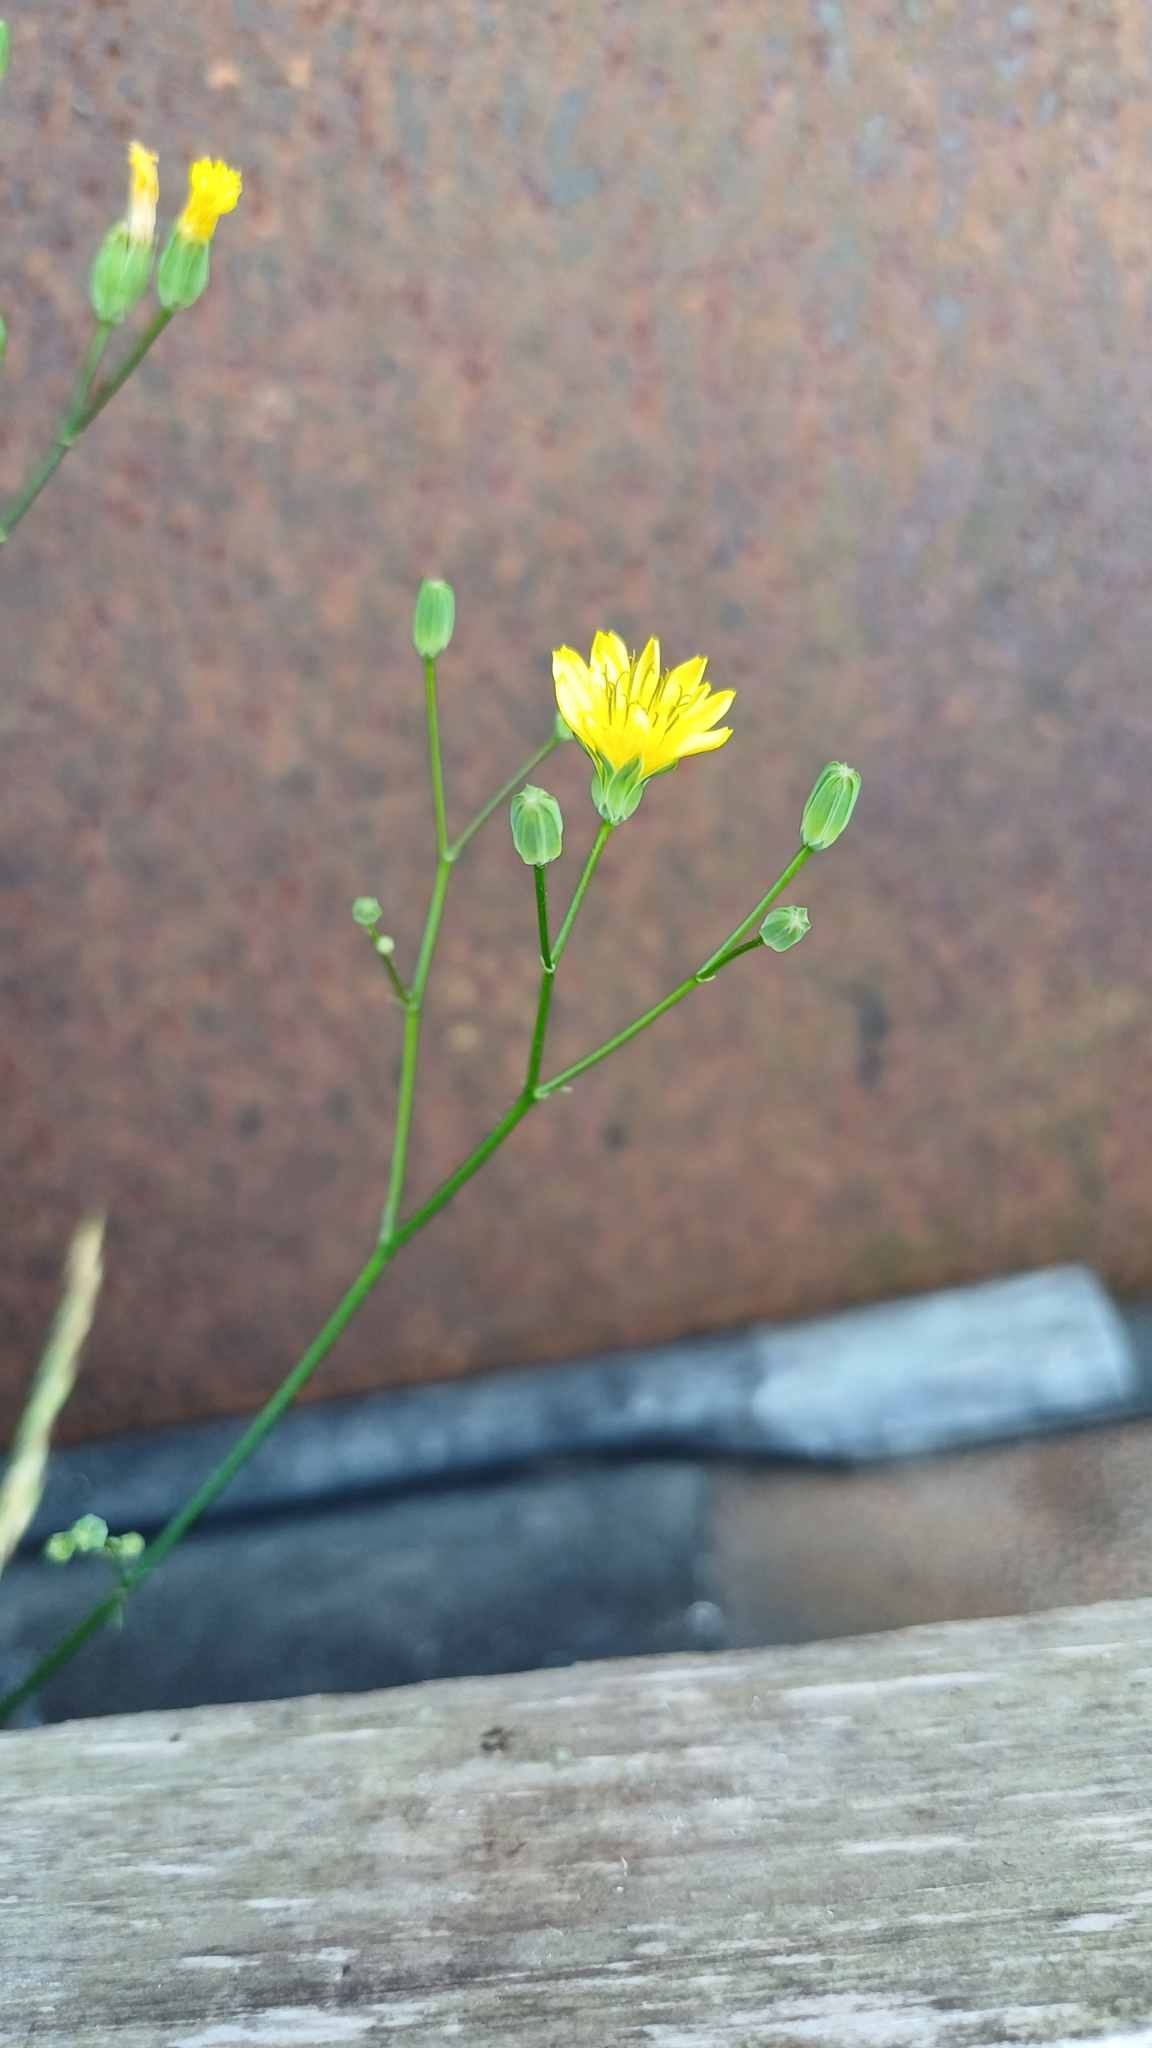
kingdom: Plantae
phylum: Tracheophyta
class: Magnoliopsida
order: Asterales
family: Asteraceae
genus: Lapsana
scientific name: Lapsana communis
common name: Nipplewort
